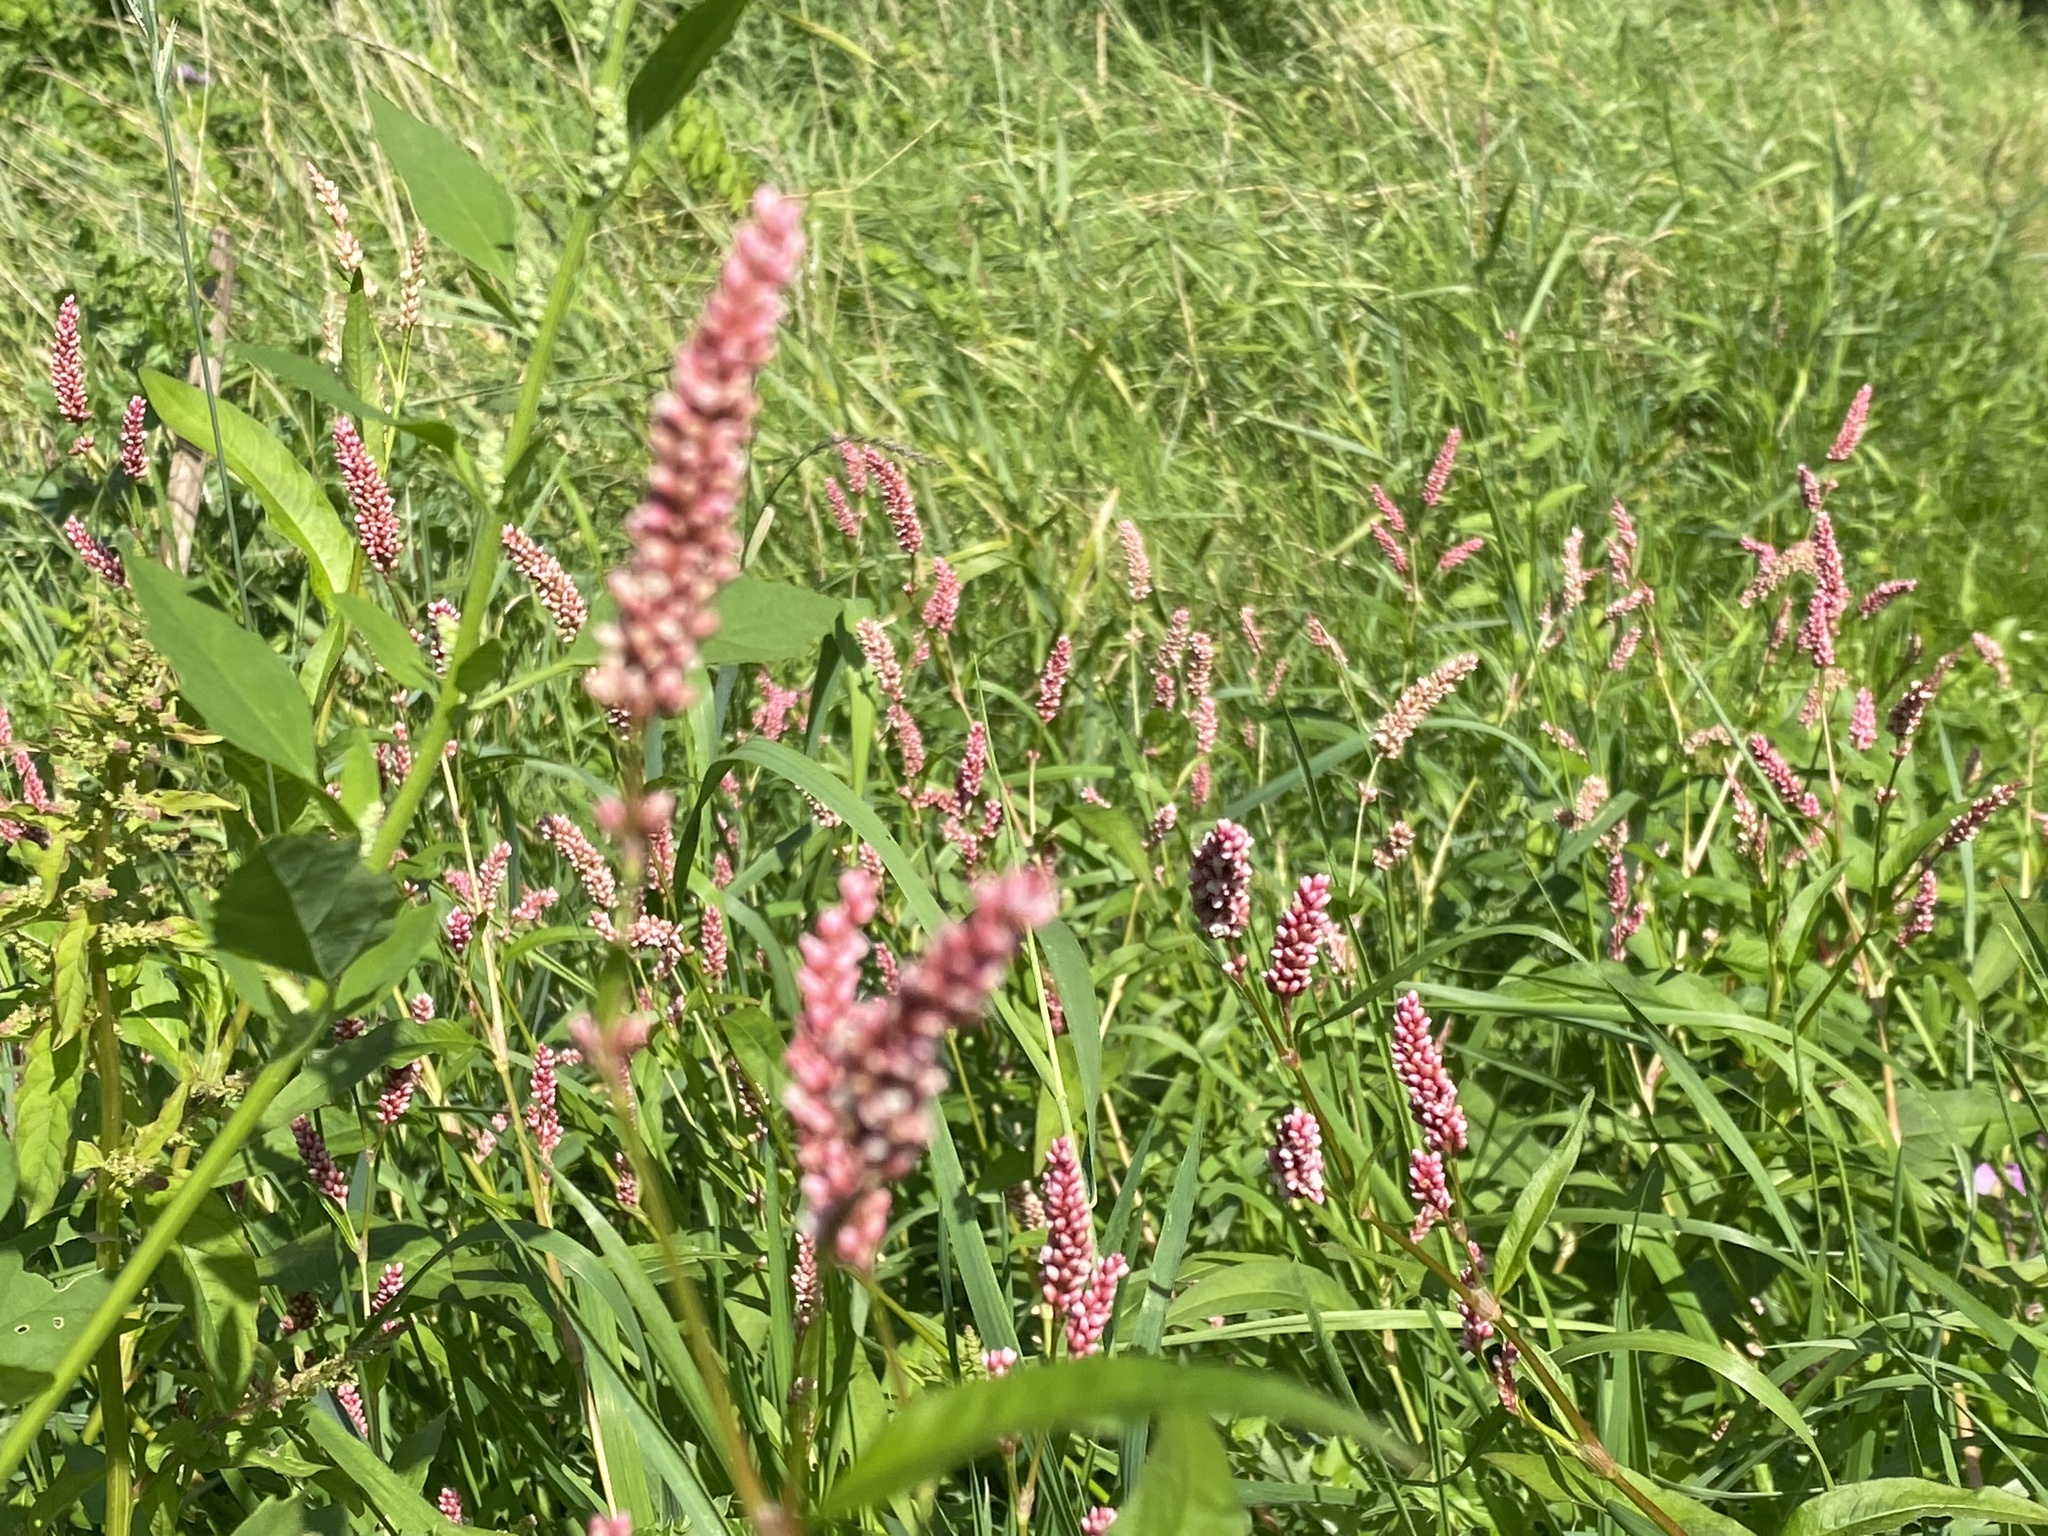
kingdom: Plantae
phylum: Tracheophyta
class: Magnoliopsida
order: Caryophyllales
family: Polygonaceae
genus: Persicaria
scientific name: Persicaria maculosa
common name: Redshank
